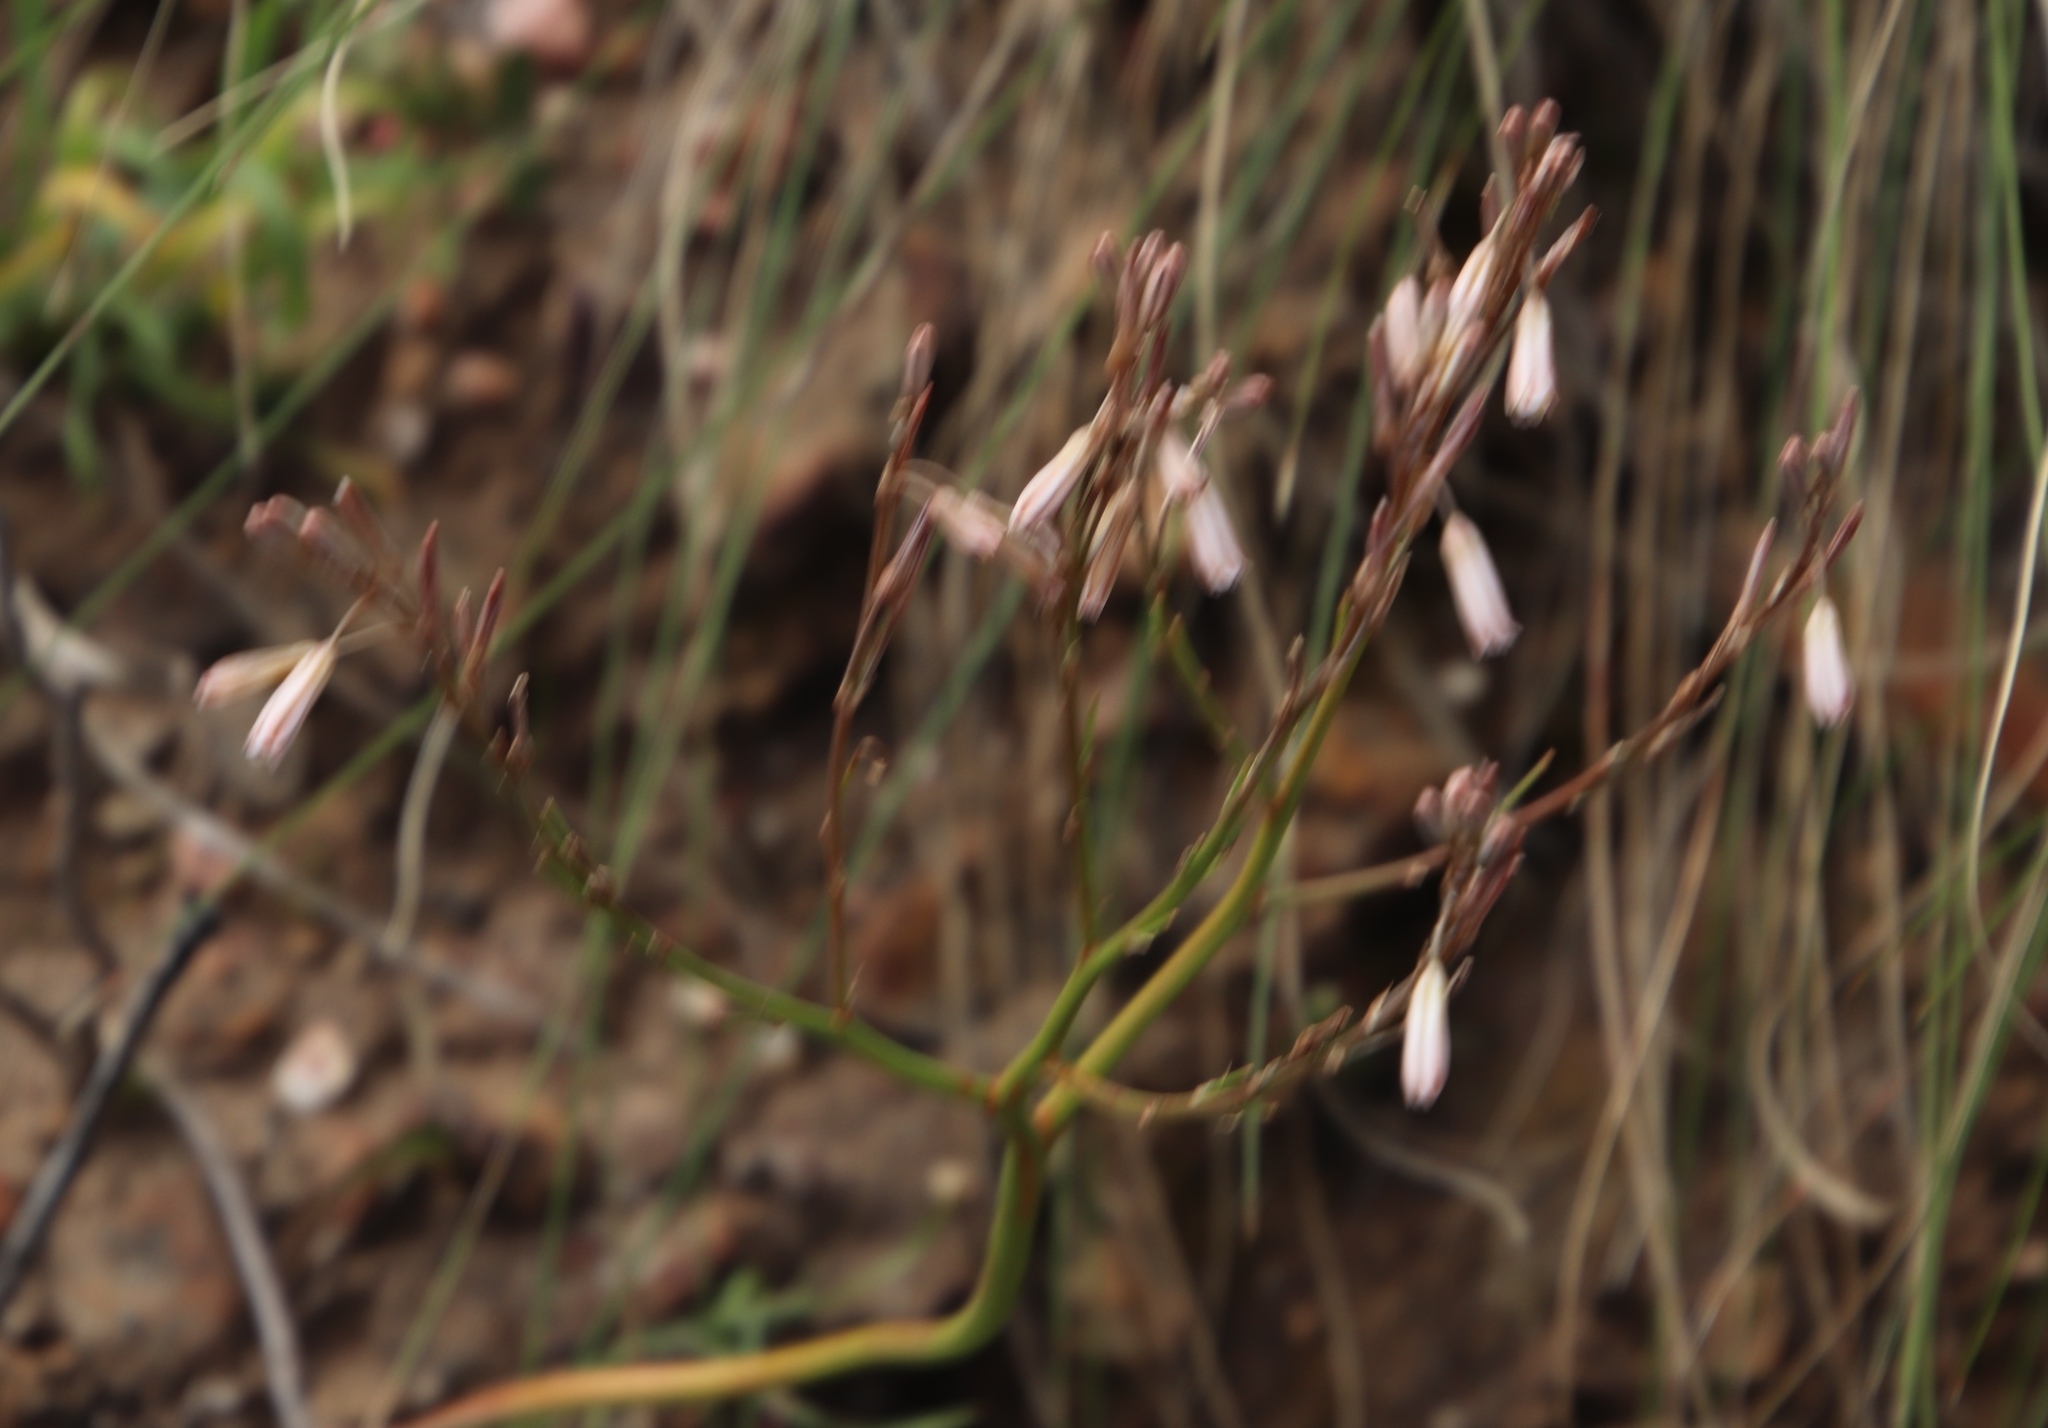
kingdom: Plantae
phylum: Tracheophyta
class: Liliopsida
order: Asparagales
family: Asphodelaceae
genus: Trachyandra
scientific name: Trachyandra ciliata
